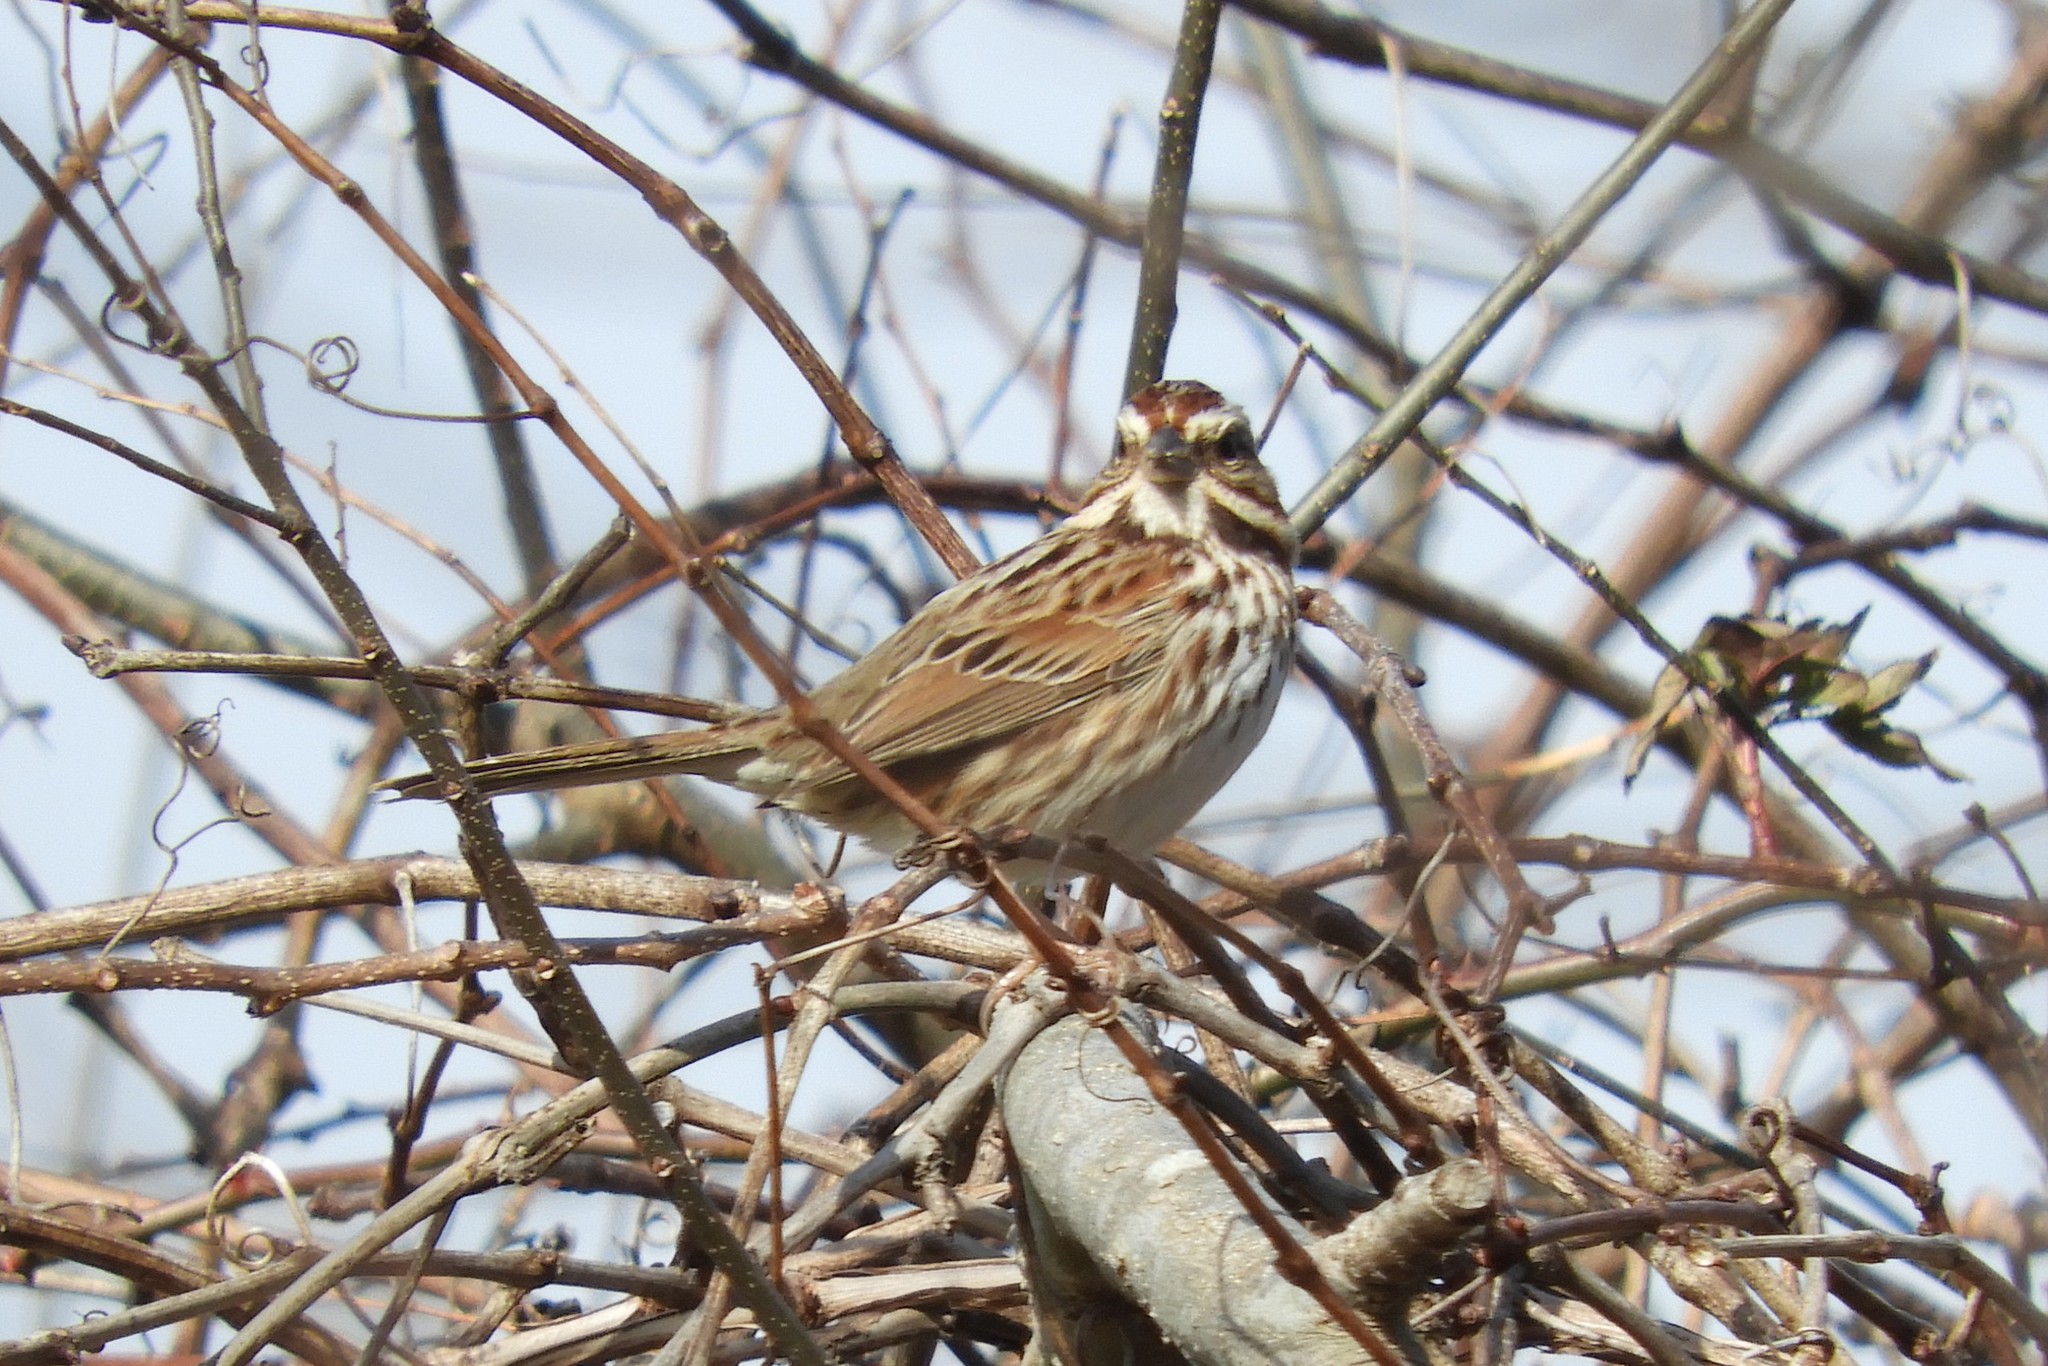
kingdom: Animalia
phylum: Chordata
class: Aves
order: Passeriformes
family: Passerellidae
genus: Melospiza
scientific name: Melospiza melodia
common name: Song sparrow
